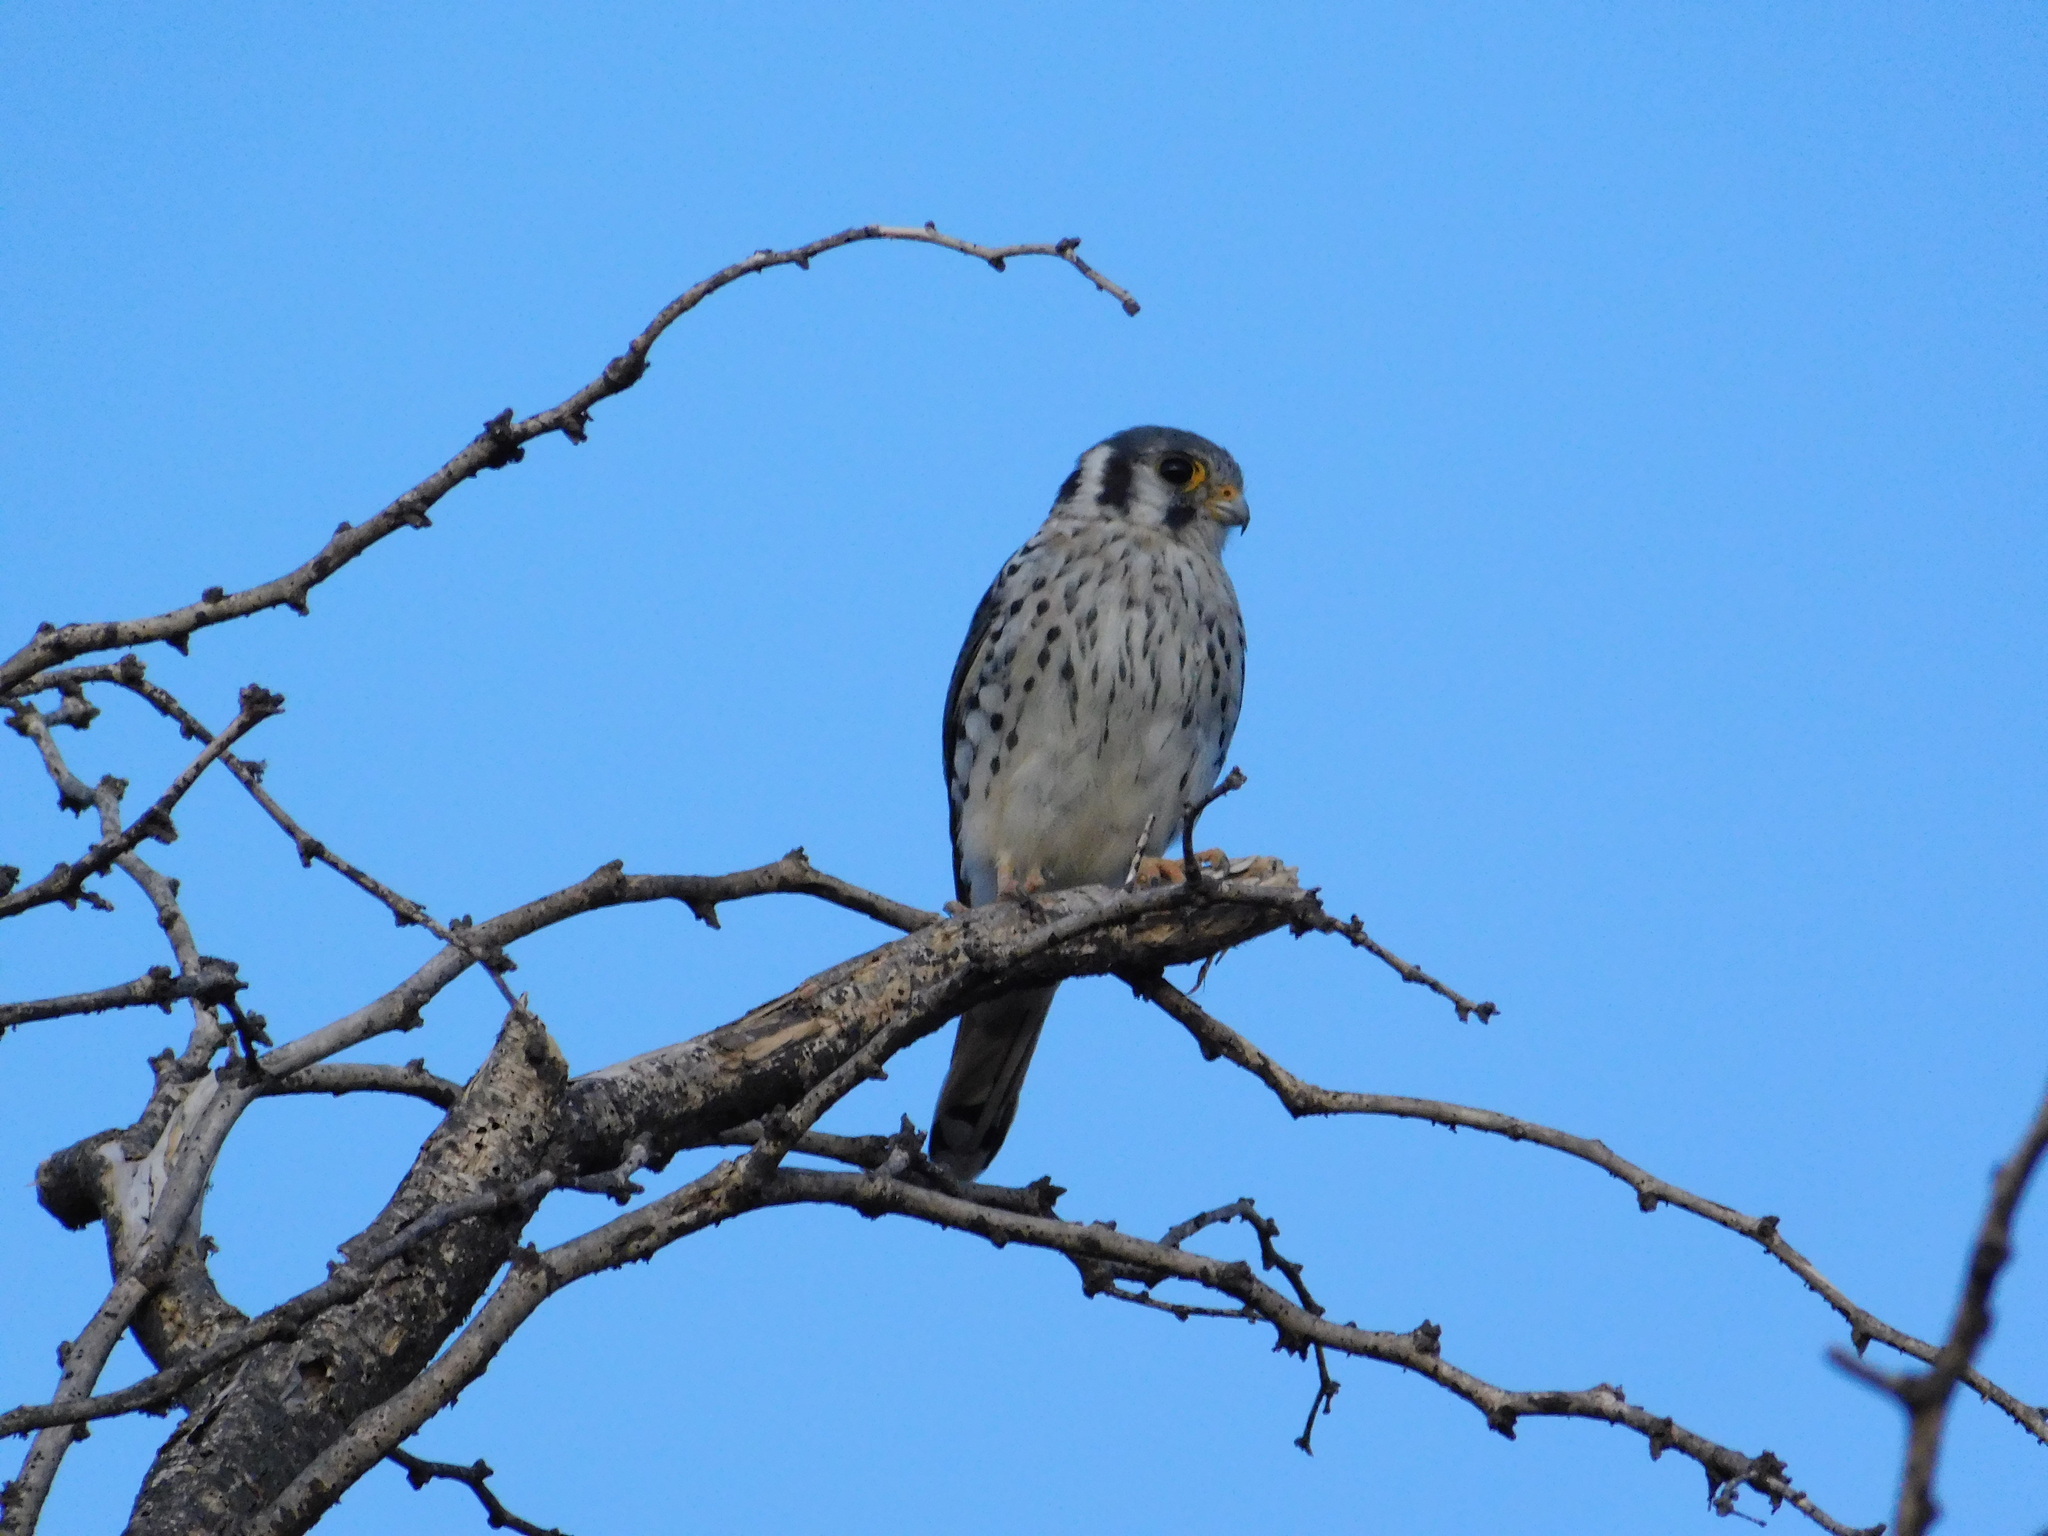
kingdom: Animalia
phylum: Chordata
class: Aves
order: Falconiformes
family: Falconidae
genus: Falco
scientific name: Falco sparverius
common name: American kestrel
